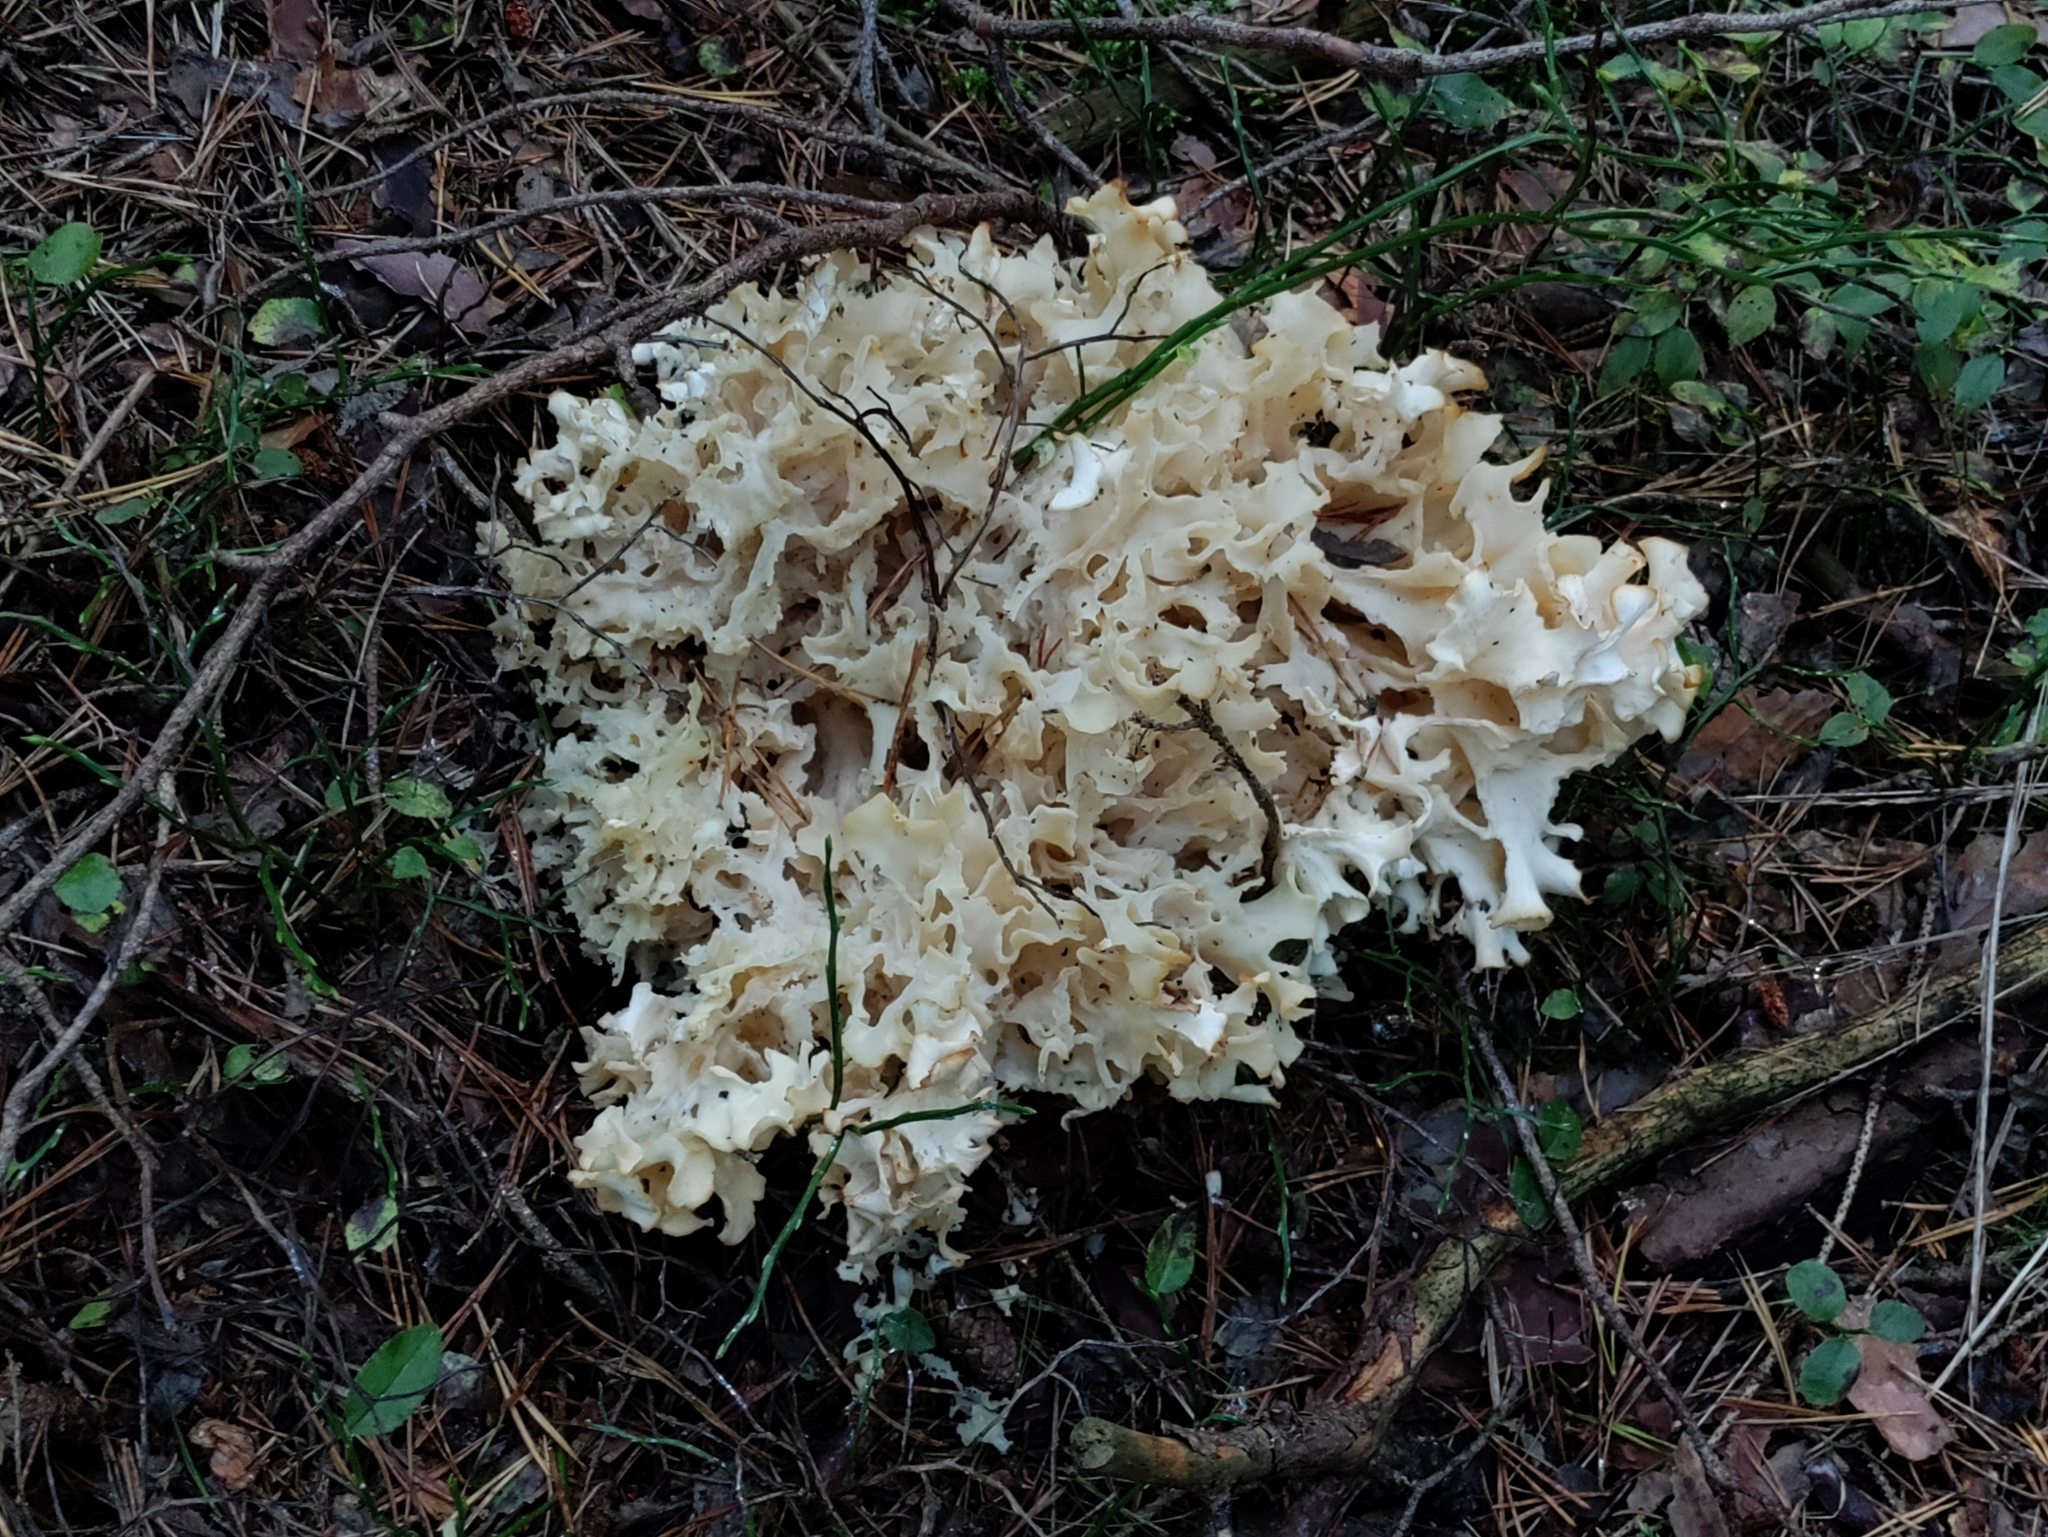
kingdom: Fungi
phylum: Basidiomycota
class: Agaricomycetes
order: Polyporales
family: Sparassidaceae
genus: Sparassis
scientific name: Sparassis crispa
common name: Brain fungus
